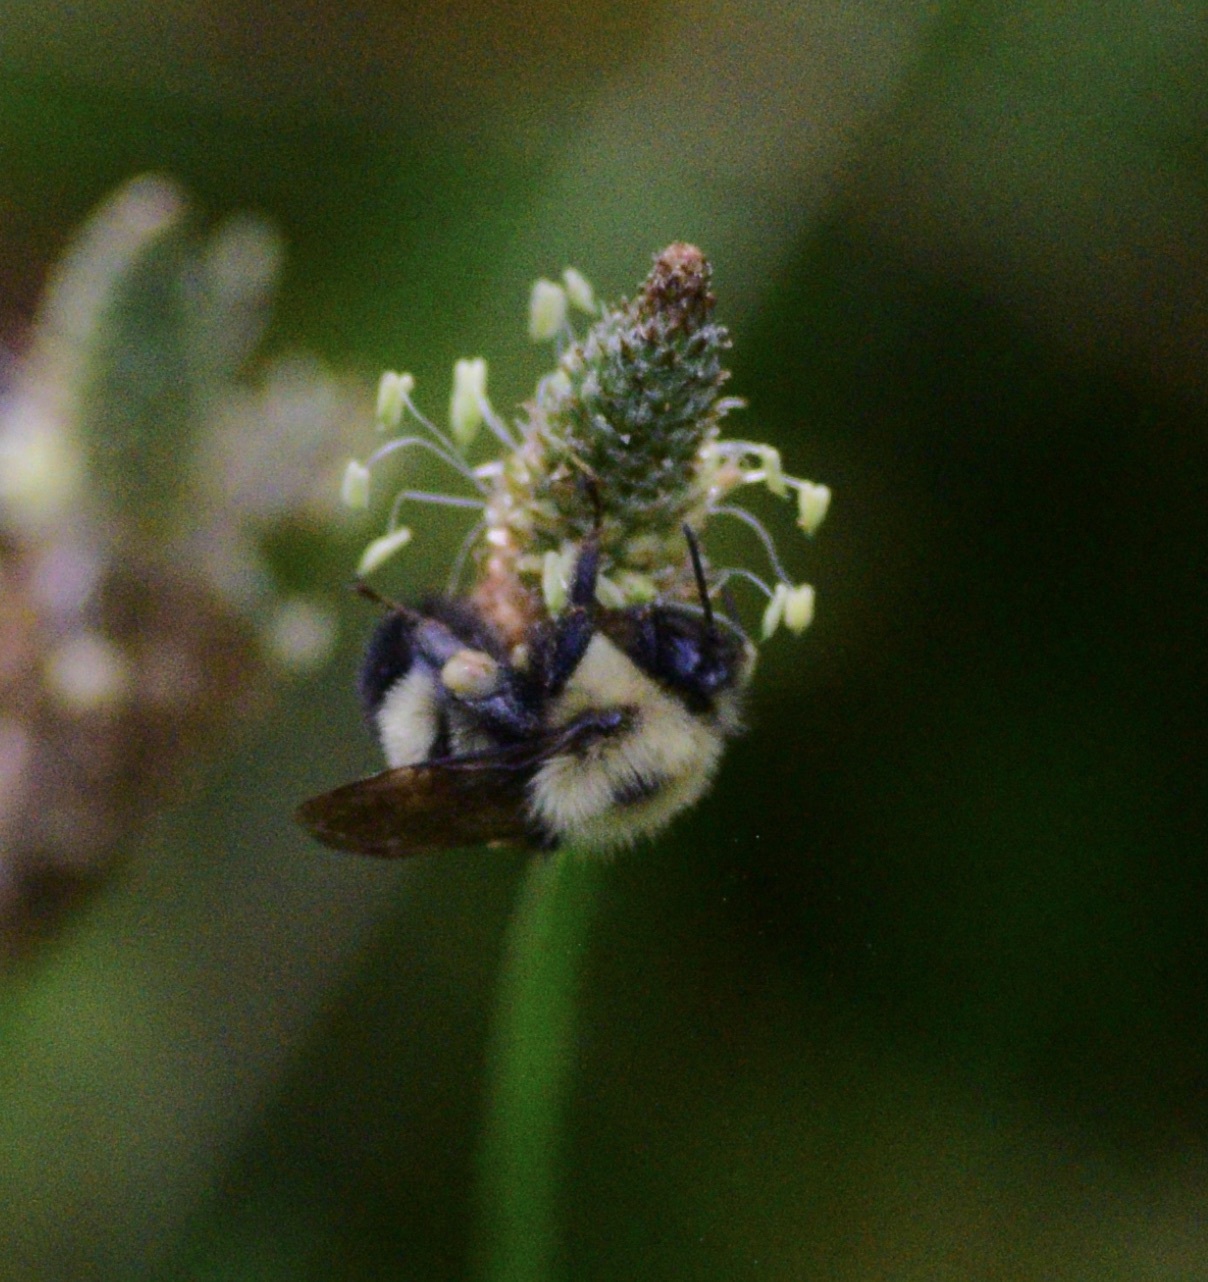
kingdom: Animalia
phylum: Arthropoda
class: Insecta
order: Hymenoptera
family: Apidae
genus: Pyrobombus
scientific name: Pyrobombus
